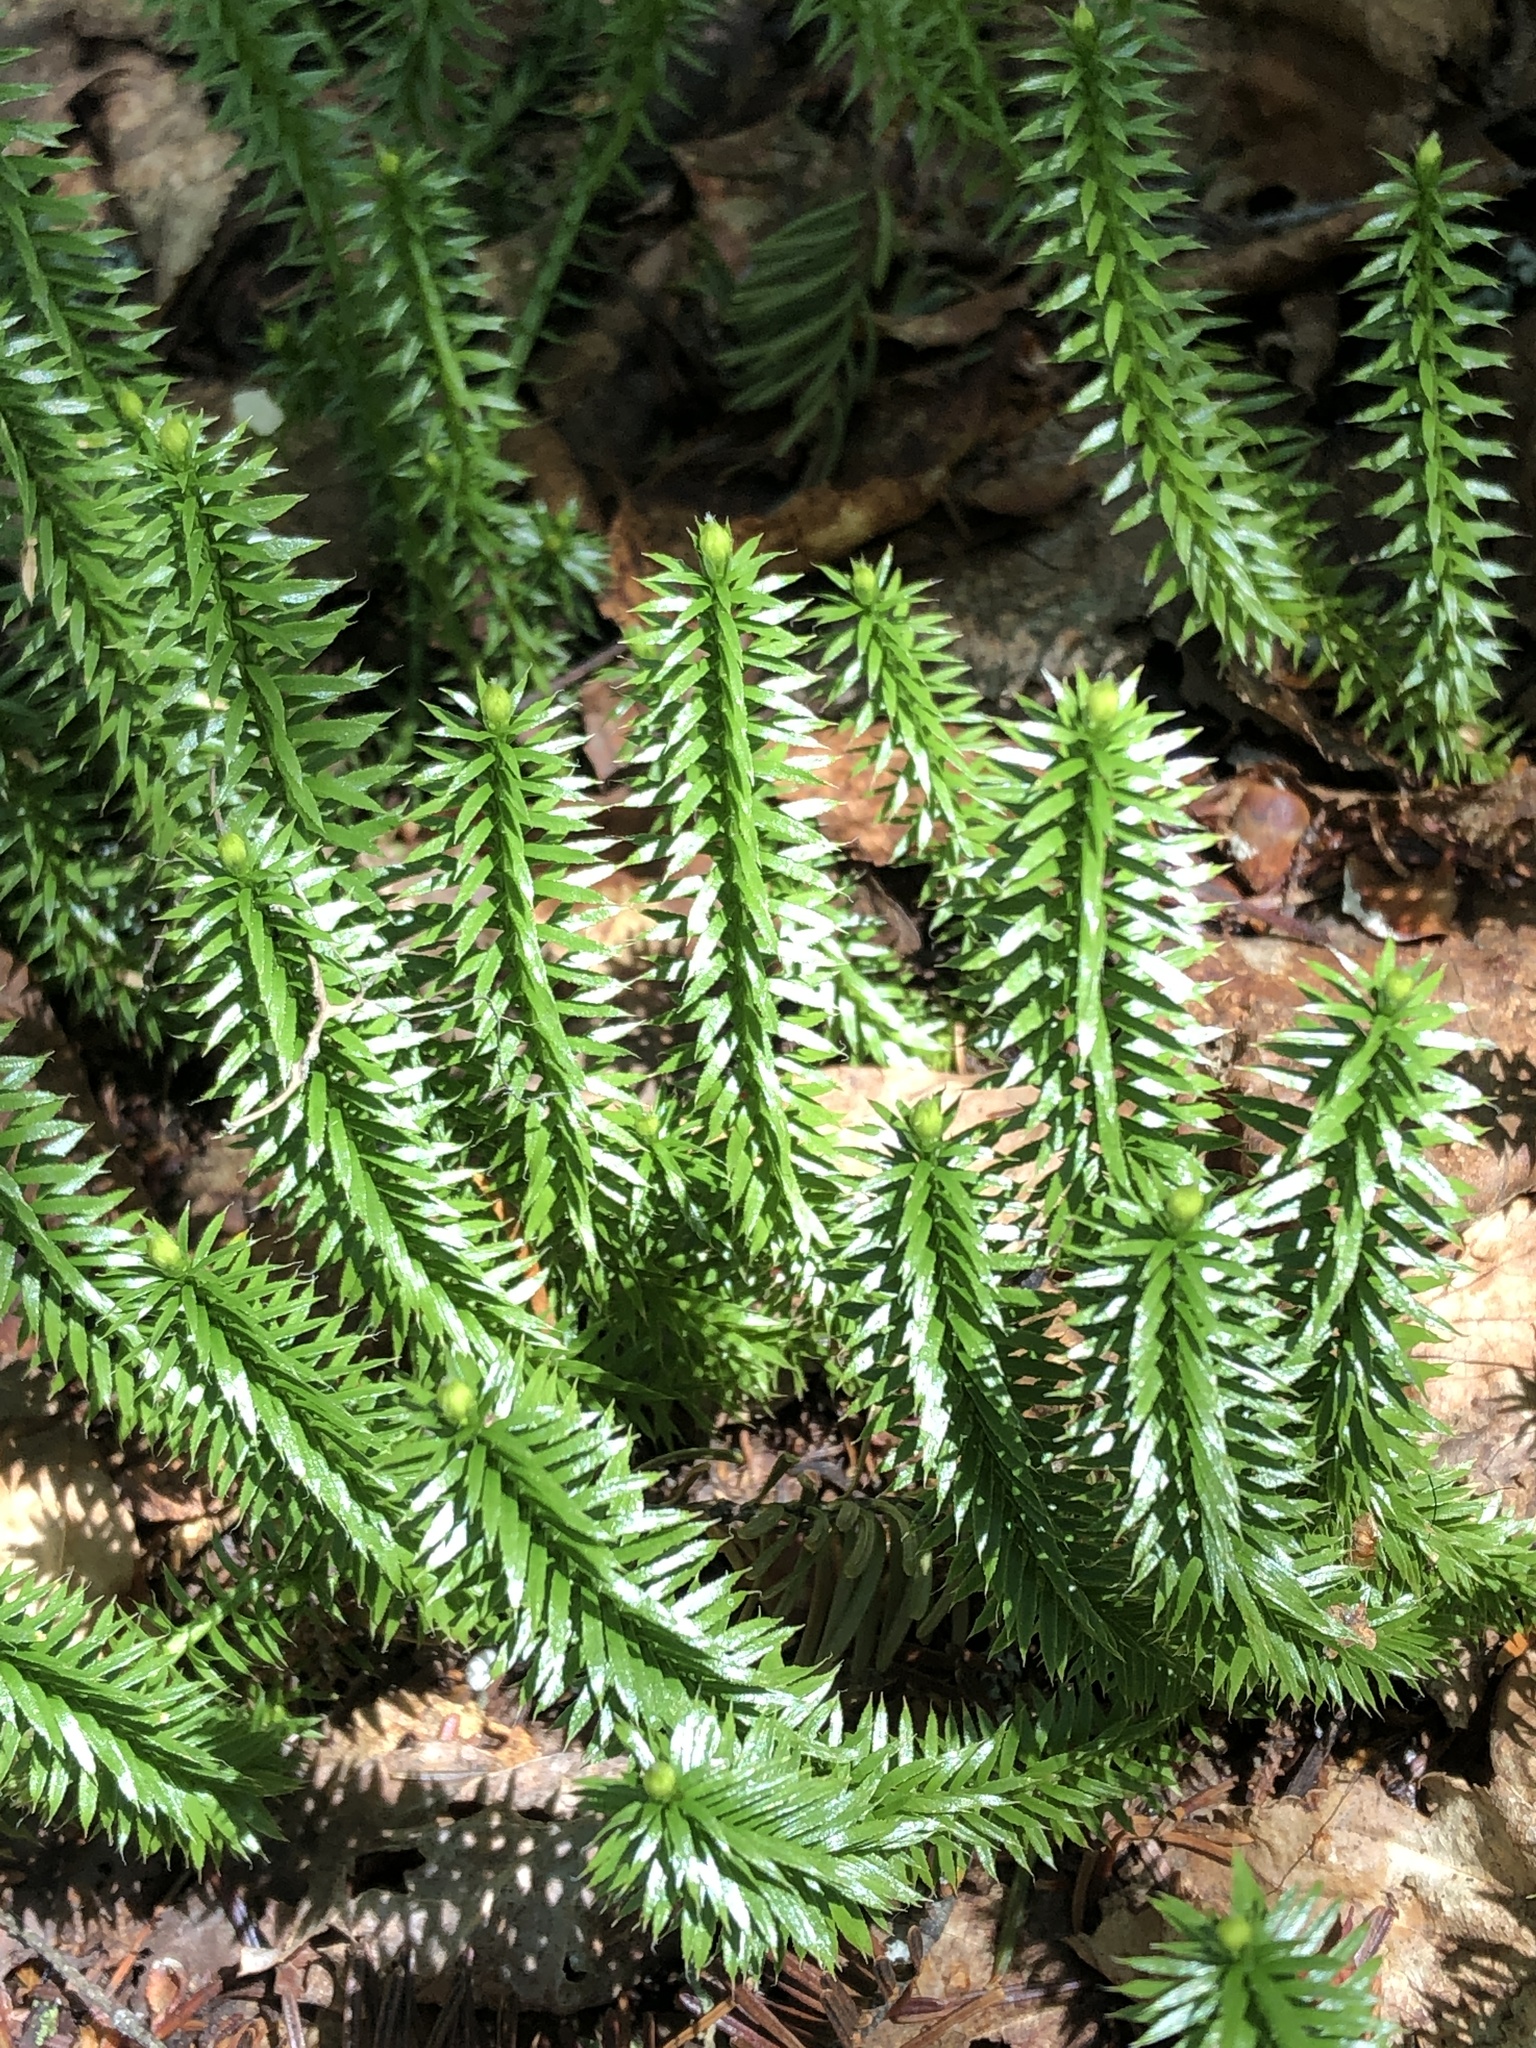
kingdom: Plantae
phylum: Tracheophyta
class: Lycopodiopsida
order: Lycopodiales
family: Lycopodiaceae
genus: Spinulum
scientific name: Spinulum annotinum
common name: Interrupted club-moss
